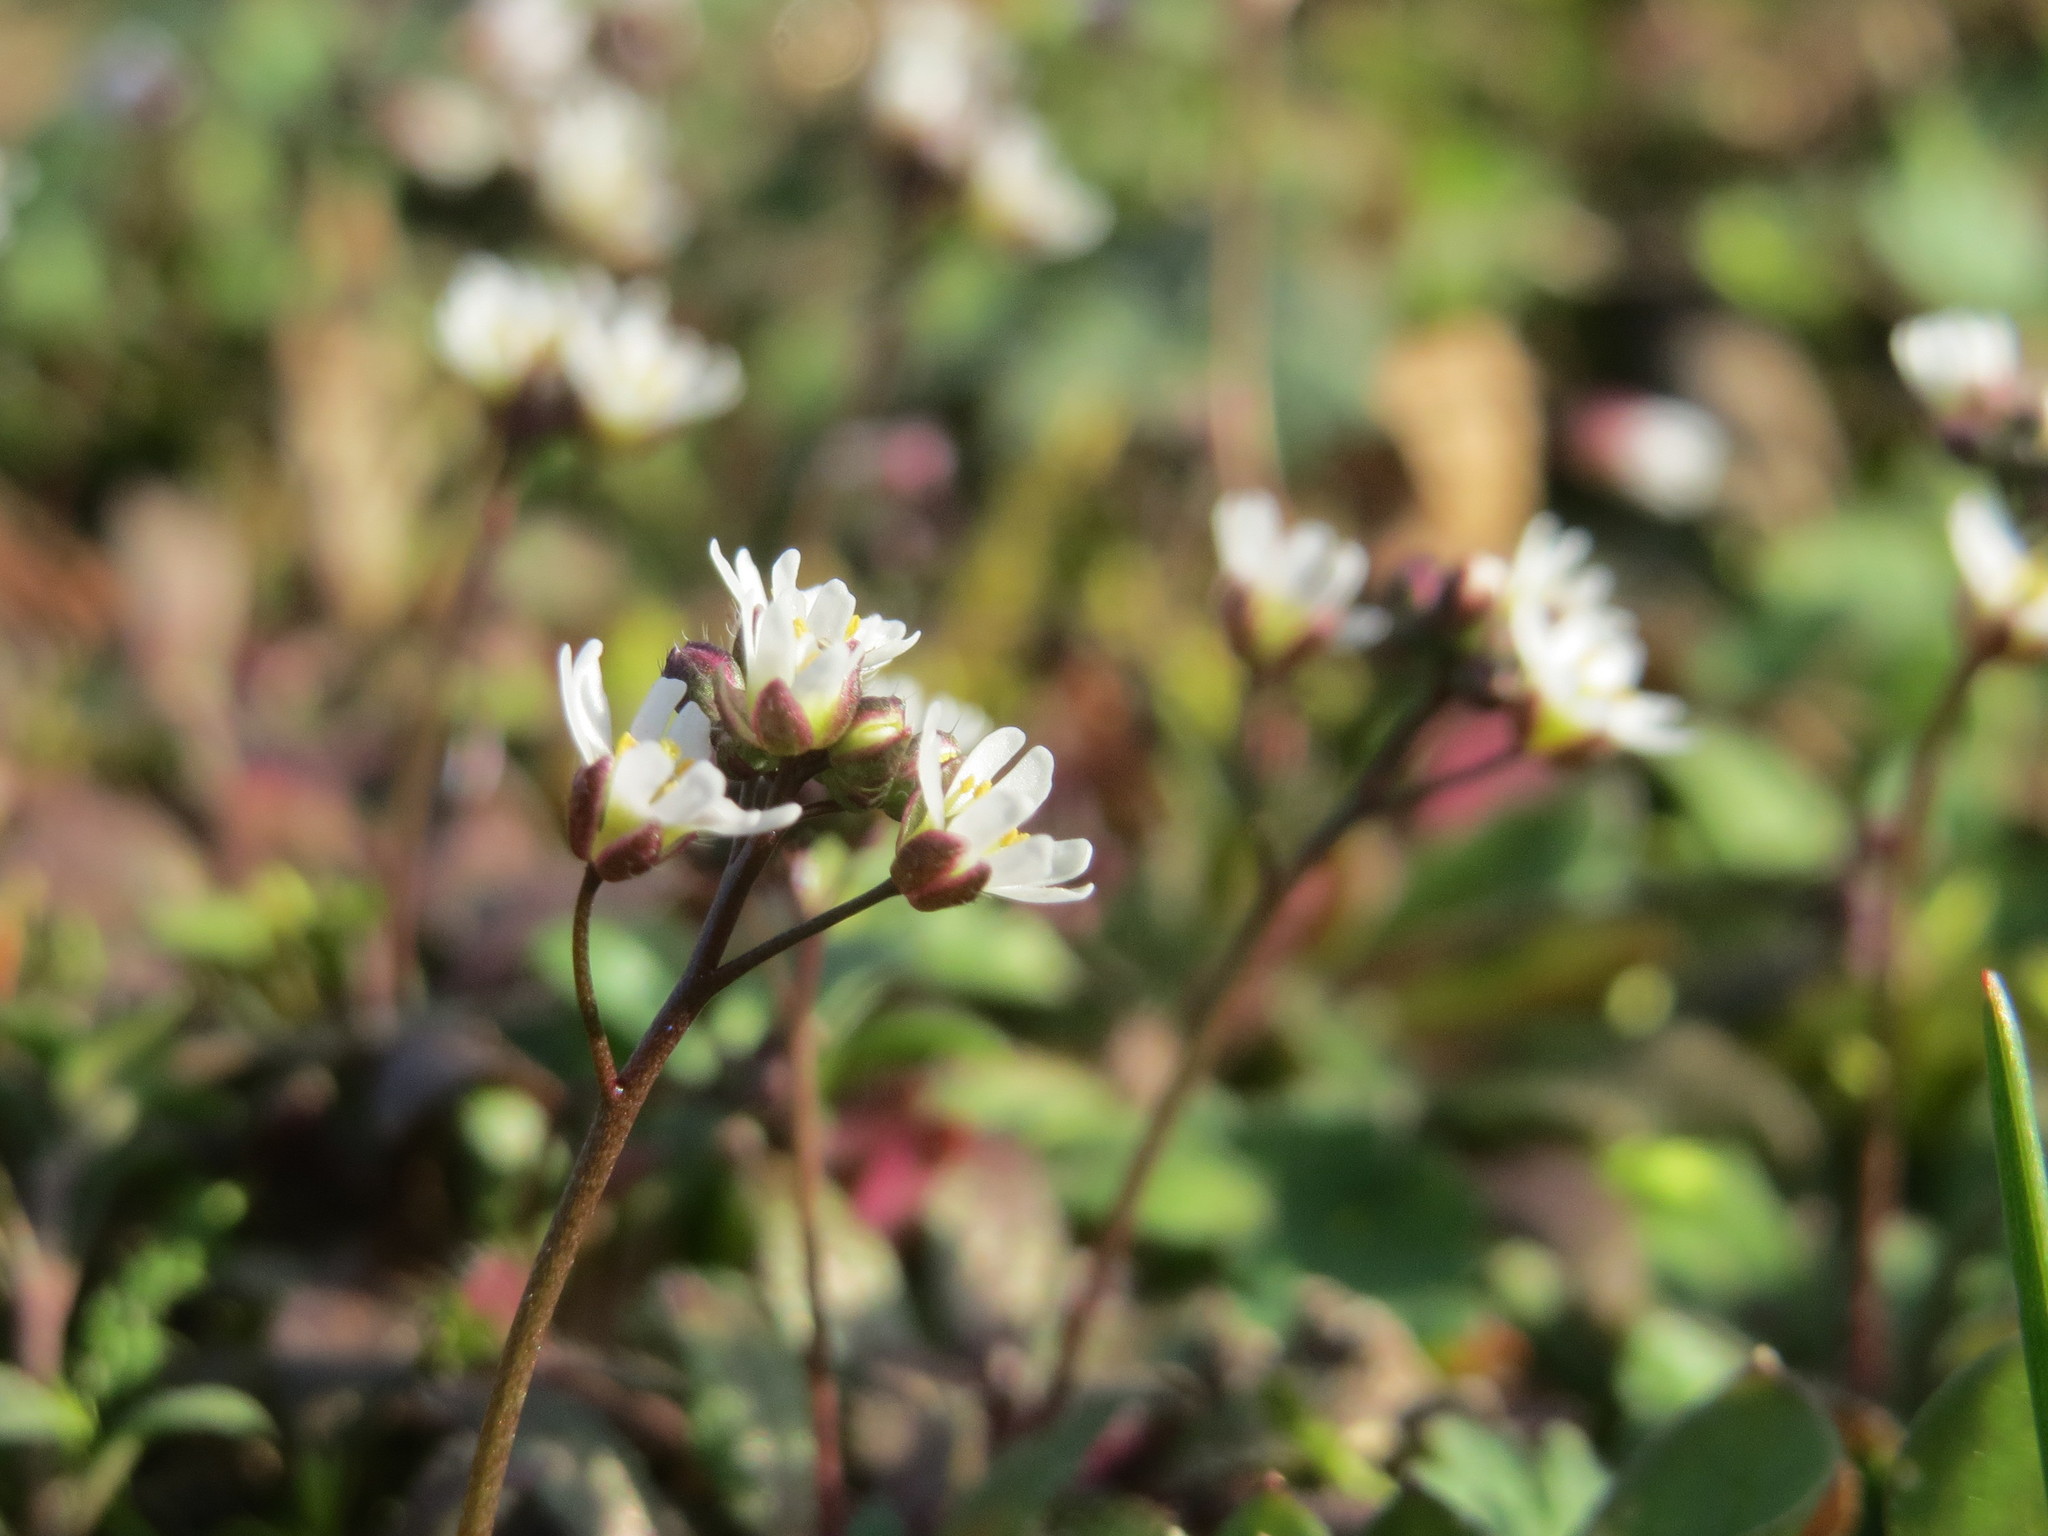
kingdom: Plantae
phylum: Tracheophyta
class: Magnoliopsida
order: Brassicales
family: Brassicaceae
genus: Draba
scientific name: Draba verna
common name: Spring draba
